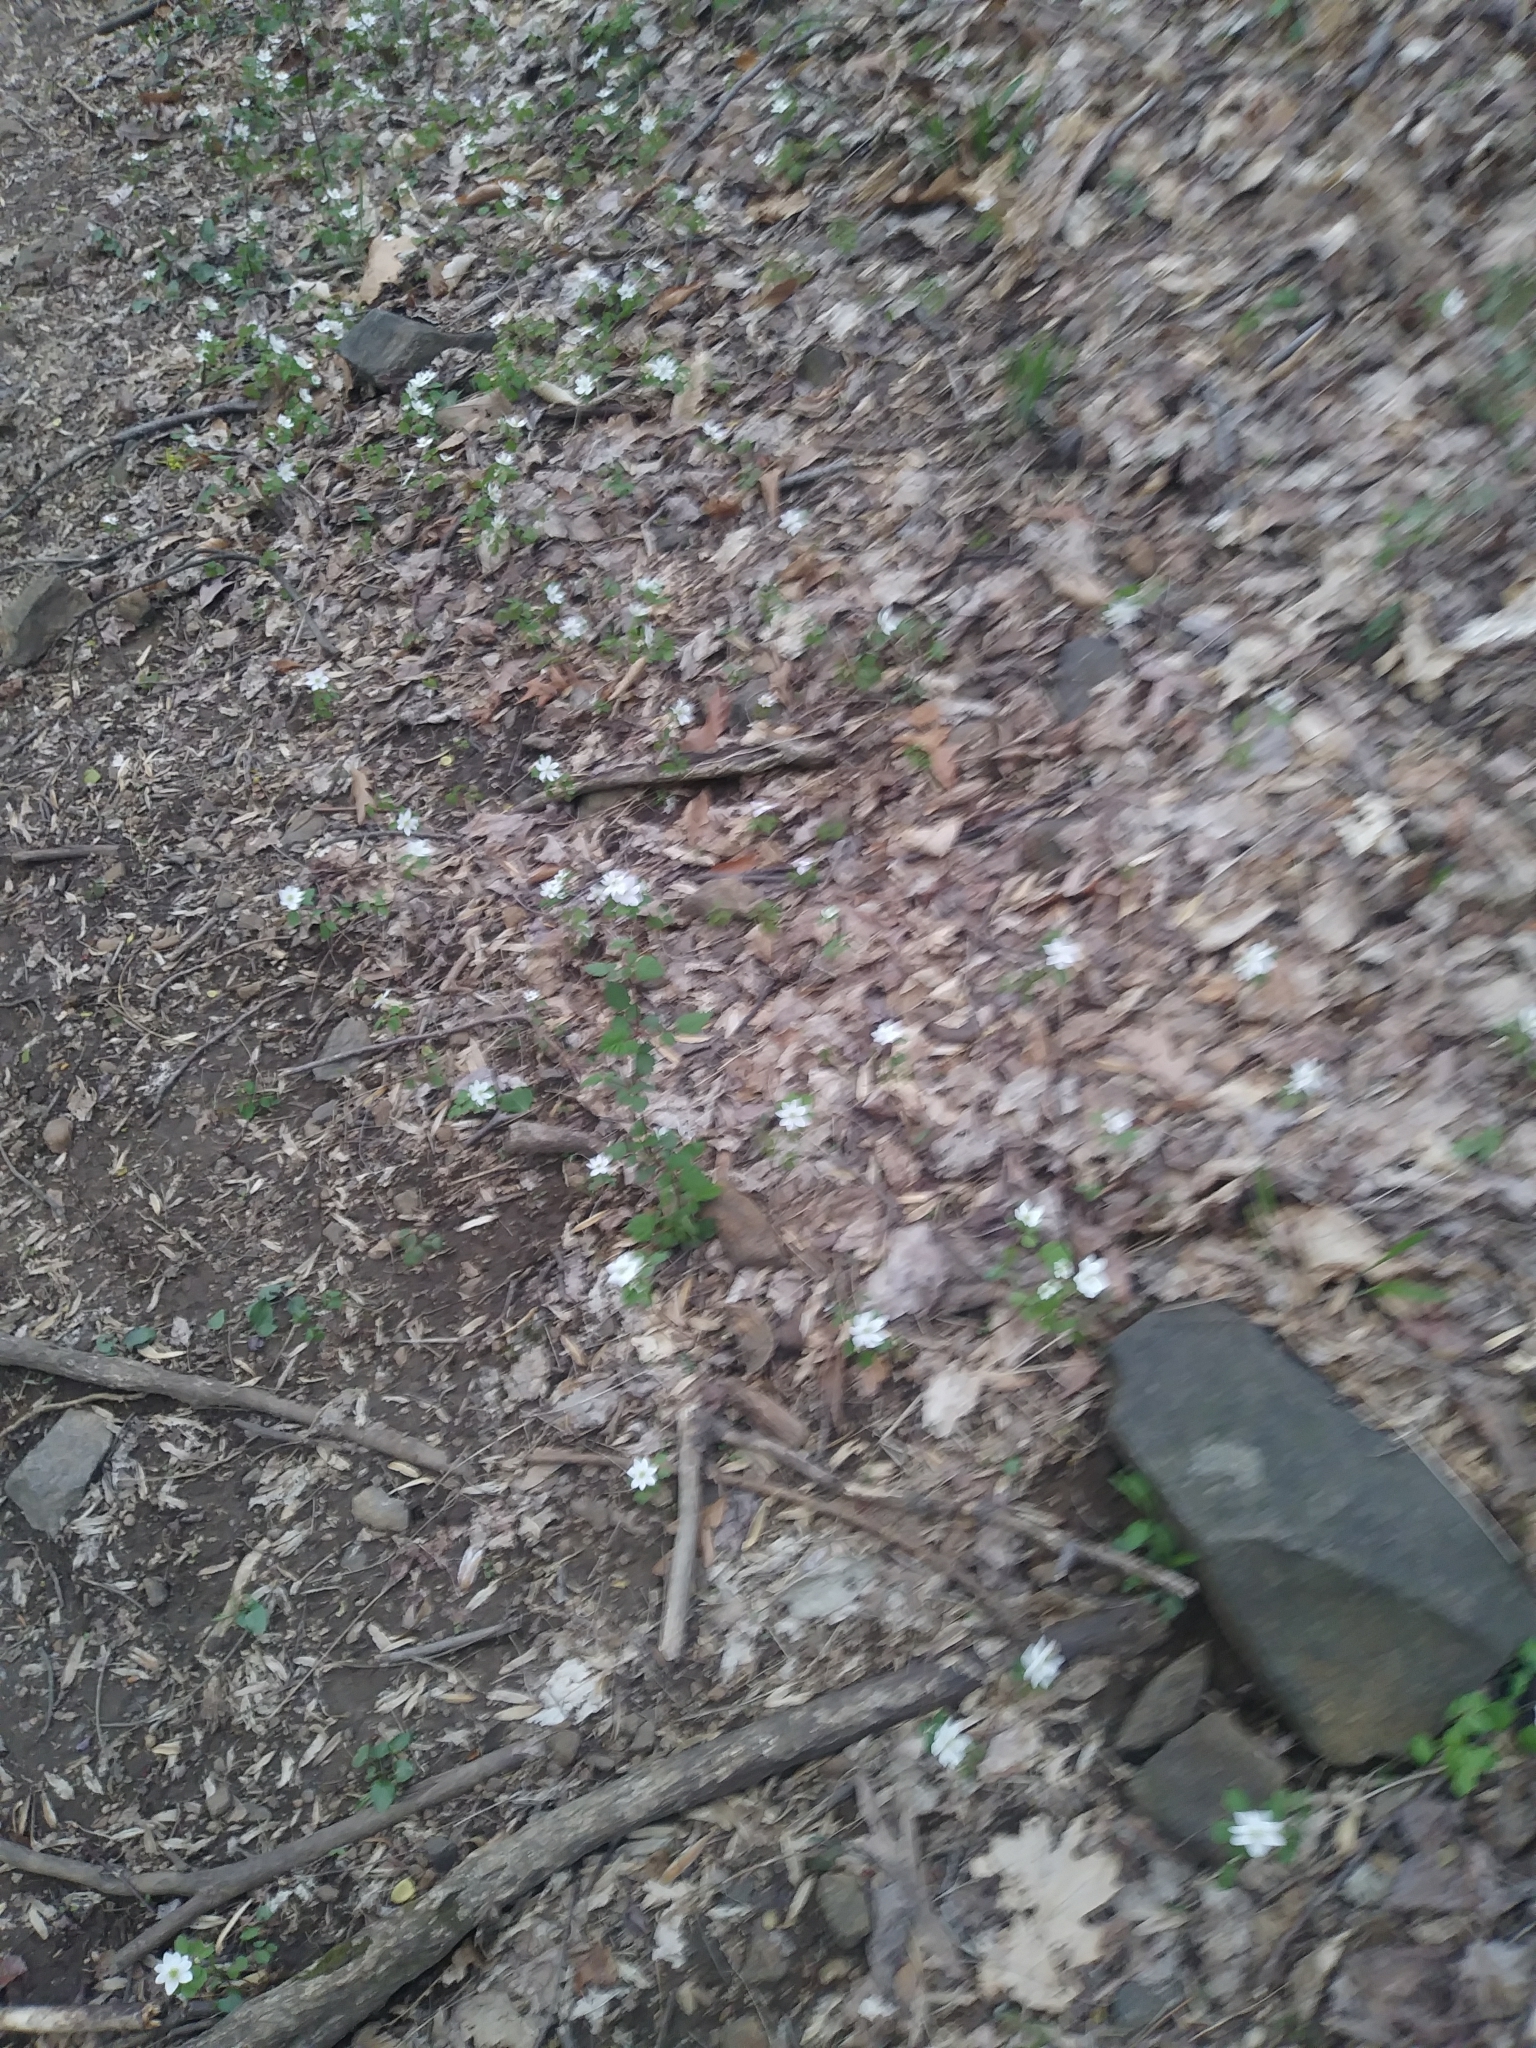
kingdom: Plantae
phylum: Tracheophyta
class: Magnoliopsida
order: Ranunculales
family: Ranunculaceae
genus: Thalictrum
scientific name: Thalictrum thalictroides
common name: Rue-anemone
